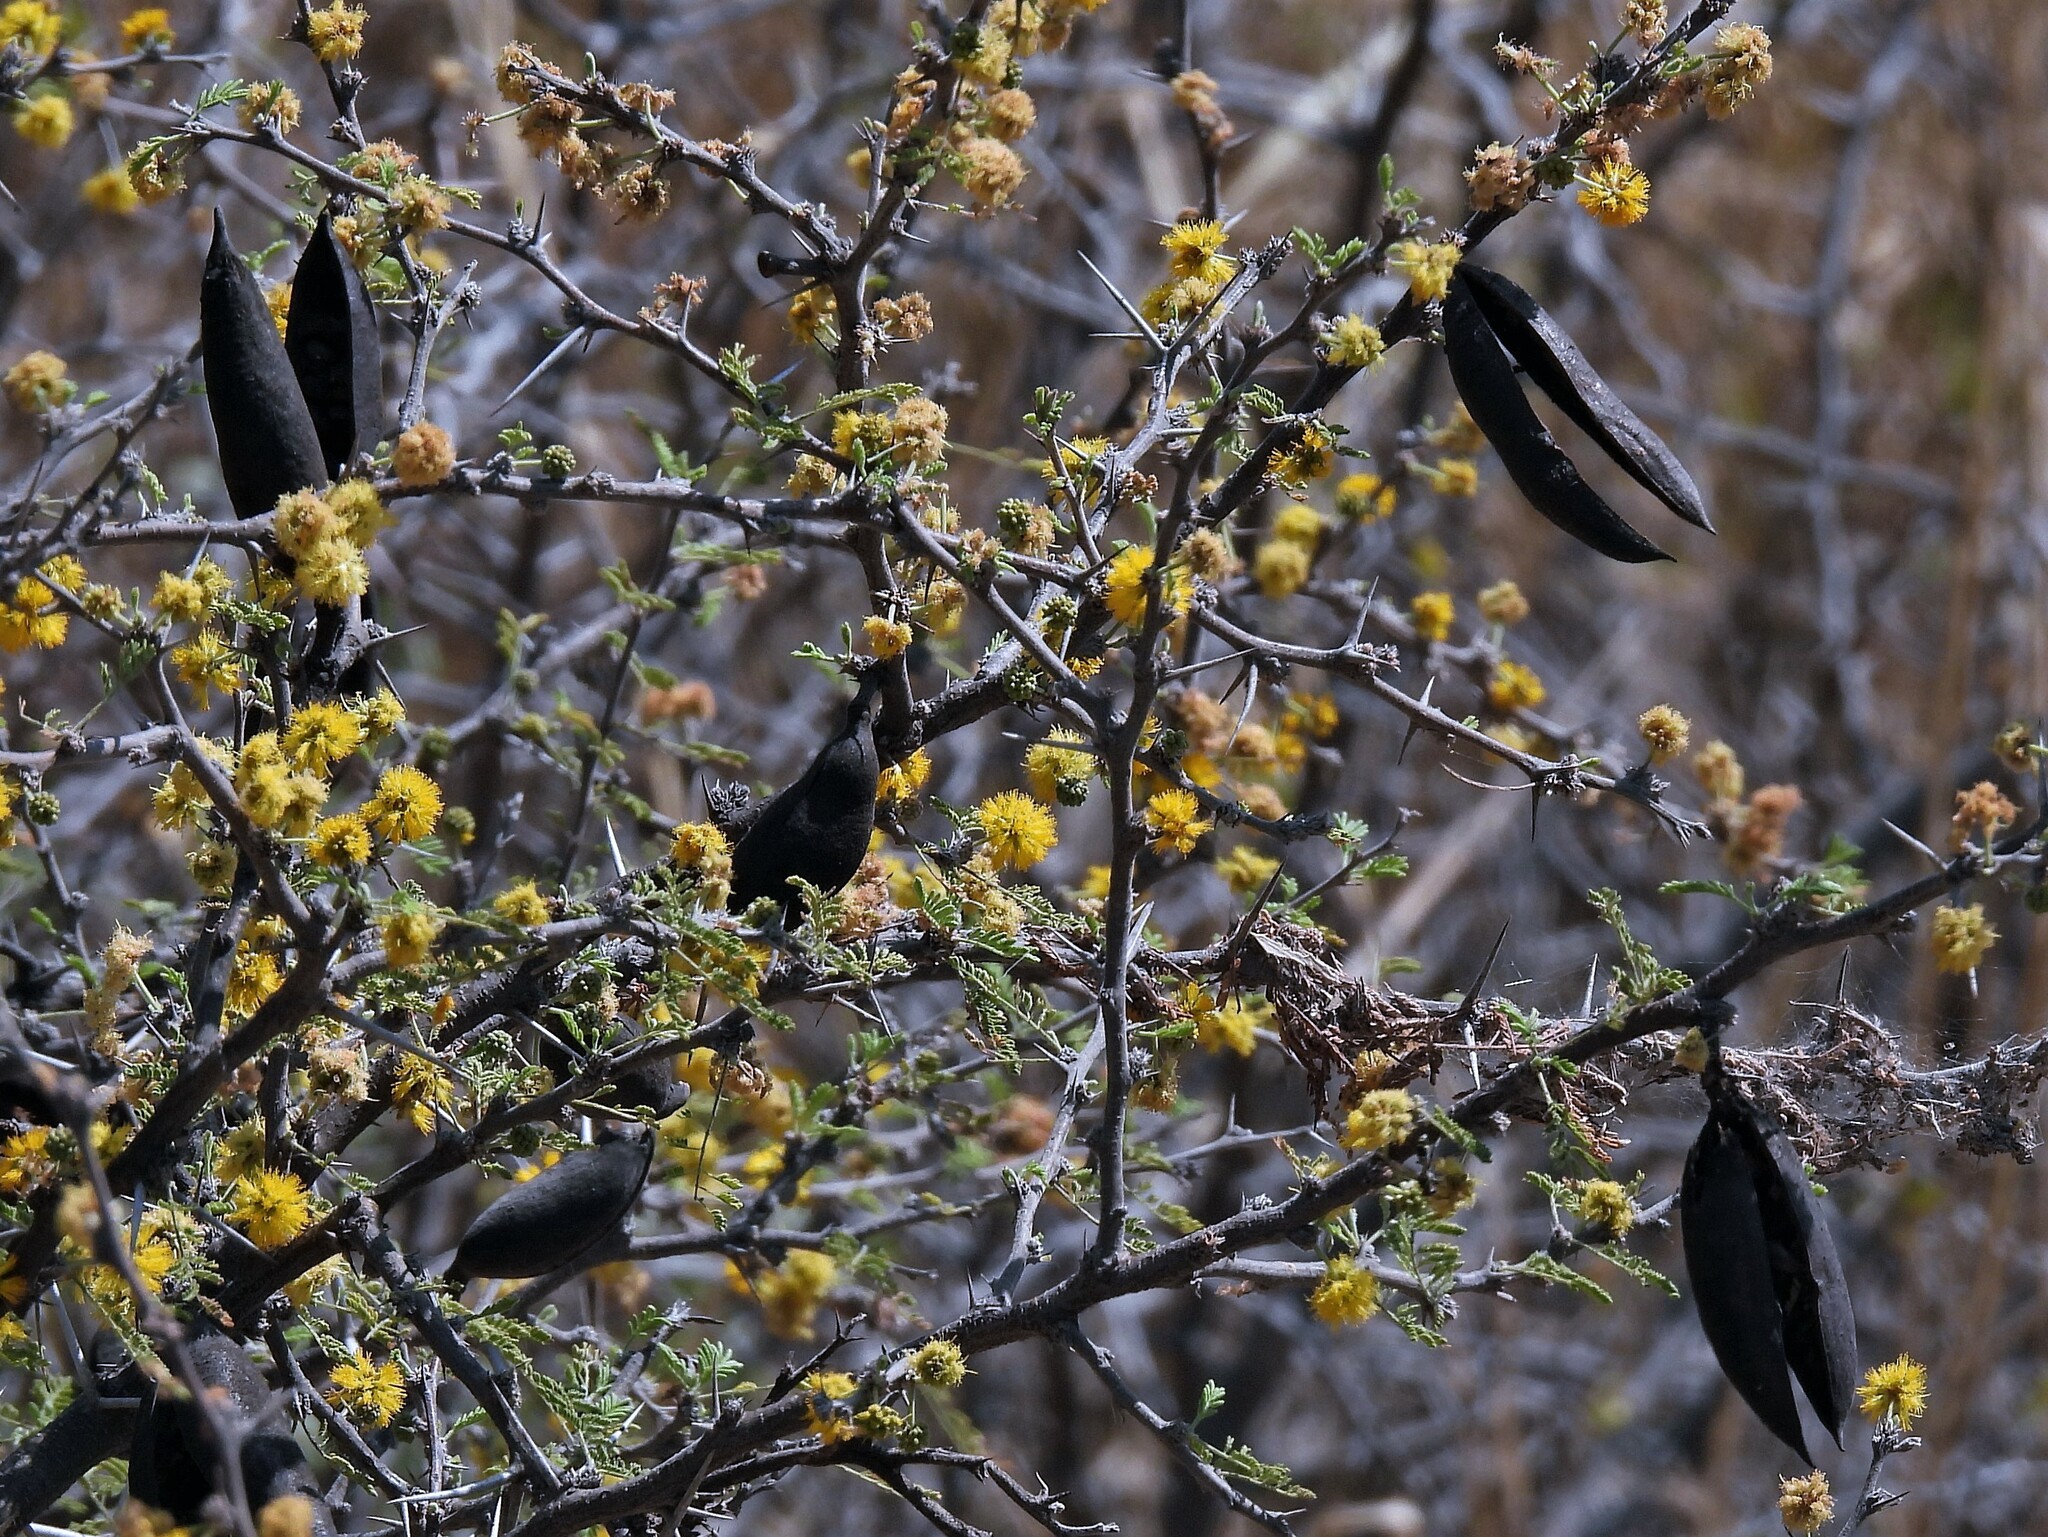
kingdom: Plantae
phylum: Tracheophyta
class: Magnoliopsida
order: Fabales
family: Fabaceae
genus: Vachellia
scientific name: Vachellia caven
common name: Roman cassie
